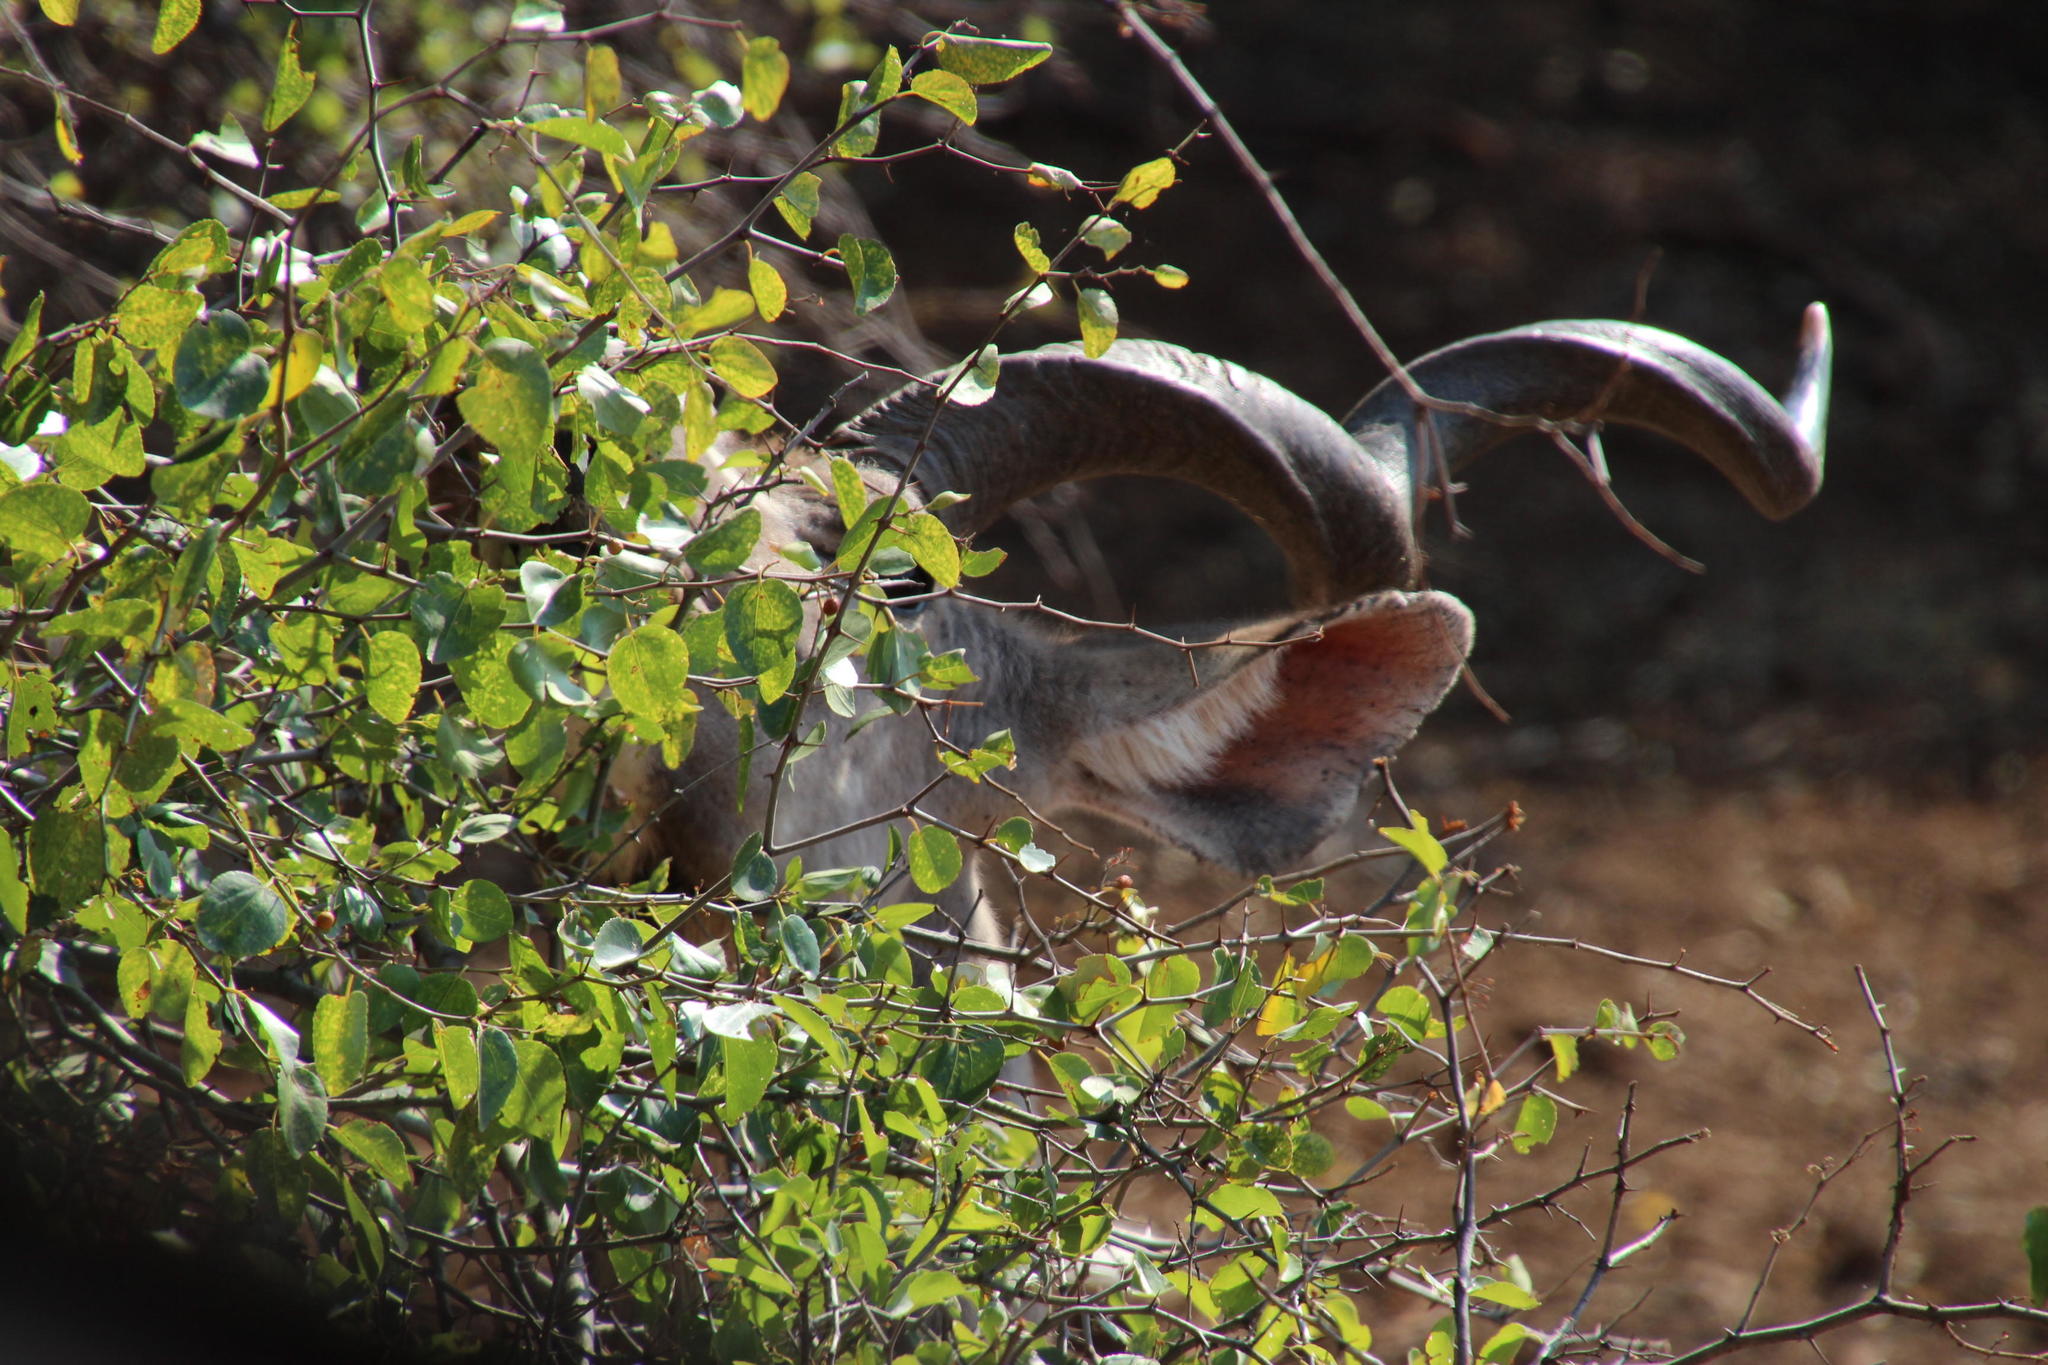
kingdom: Animalia
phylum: Chordata
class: Mammalia
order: Artiodactyla
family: Bovidae
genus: Tragelaphus
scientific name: Tragelaphus strepsiceros
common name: Greater kudu
